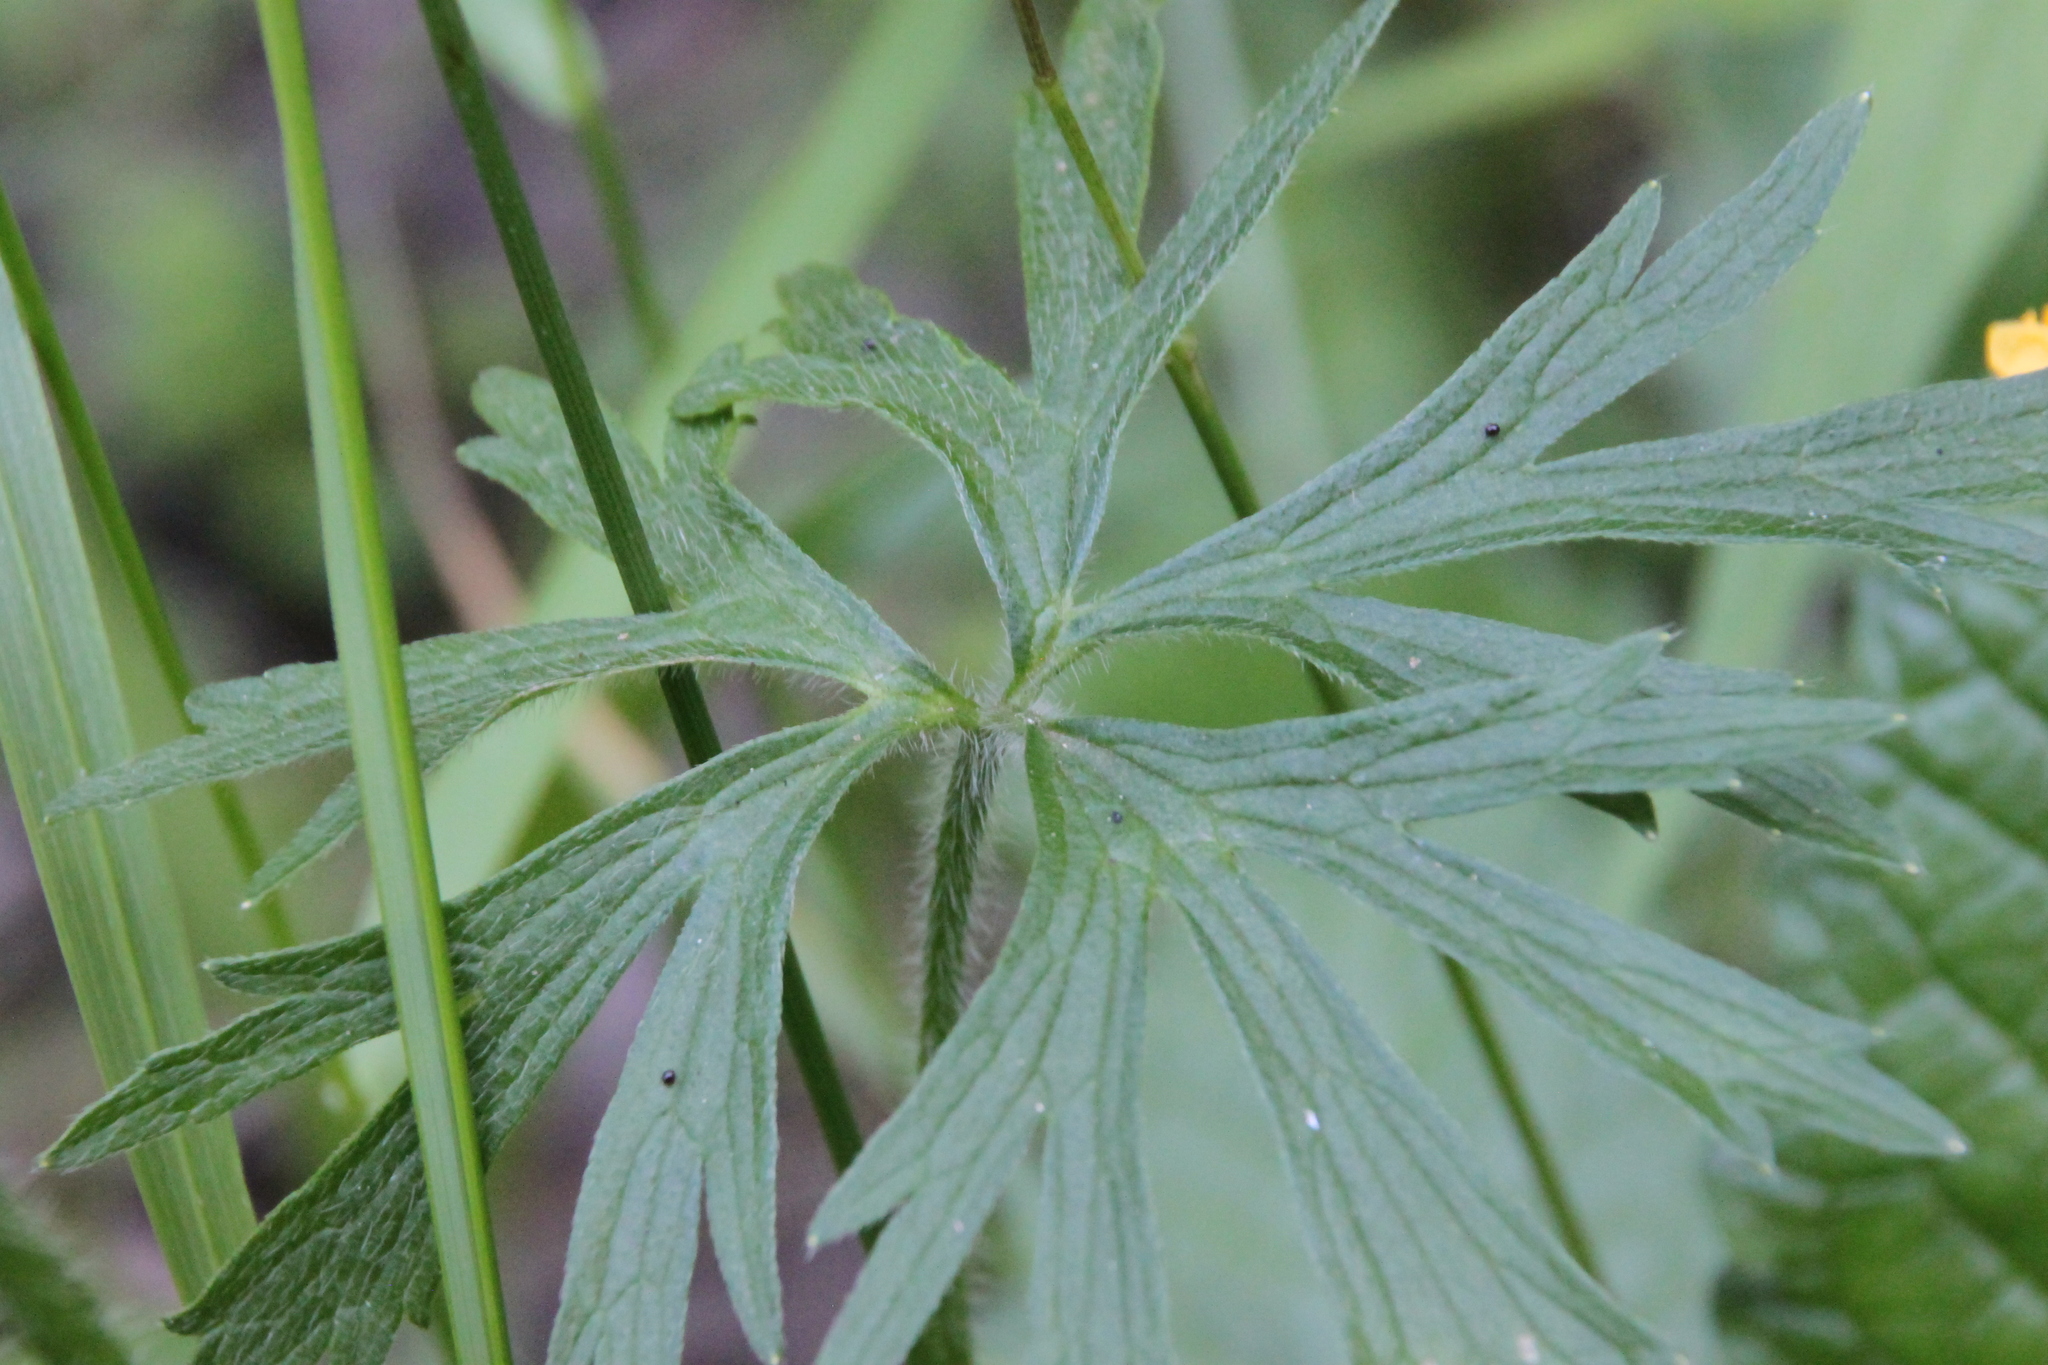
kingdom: Plantae
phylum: Tracheophyta
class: Magnoliopsida
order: Ranunculales
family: Ranunculaceae
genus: Ranunculus
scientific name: Ranunculus polyanthemos
